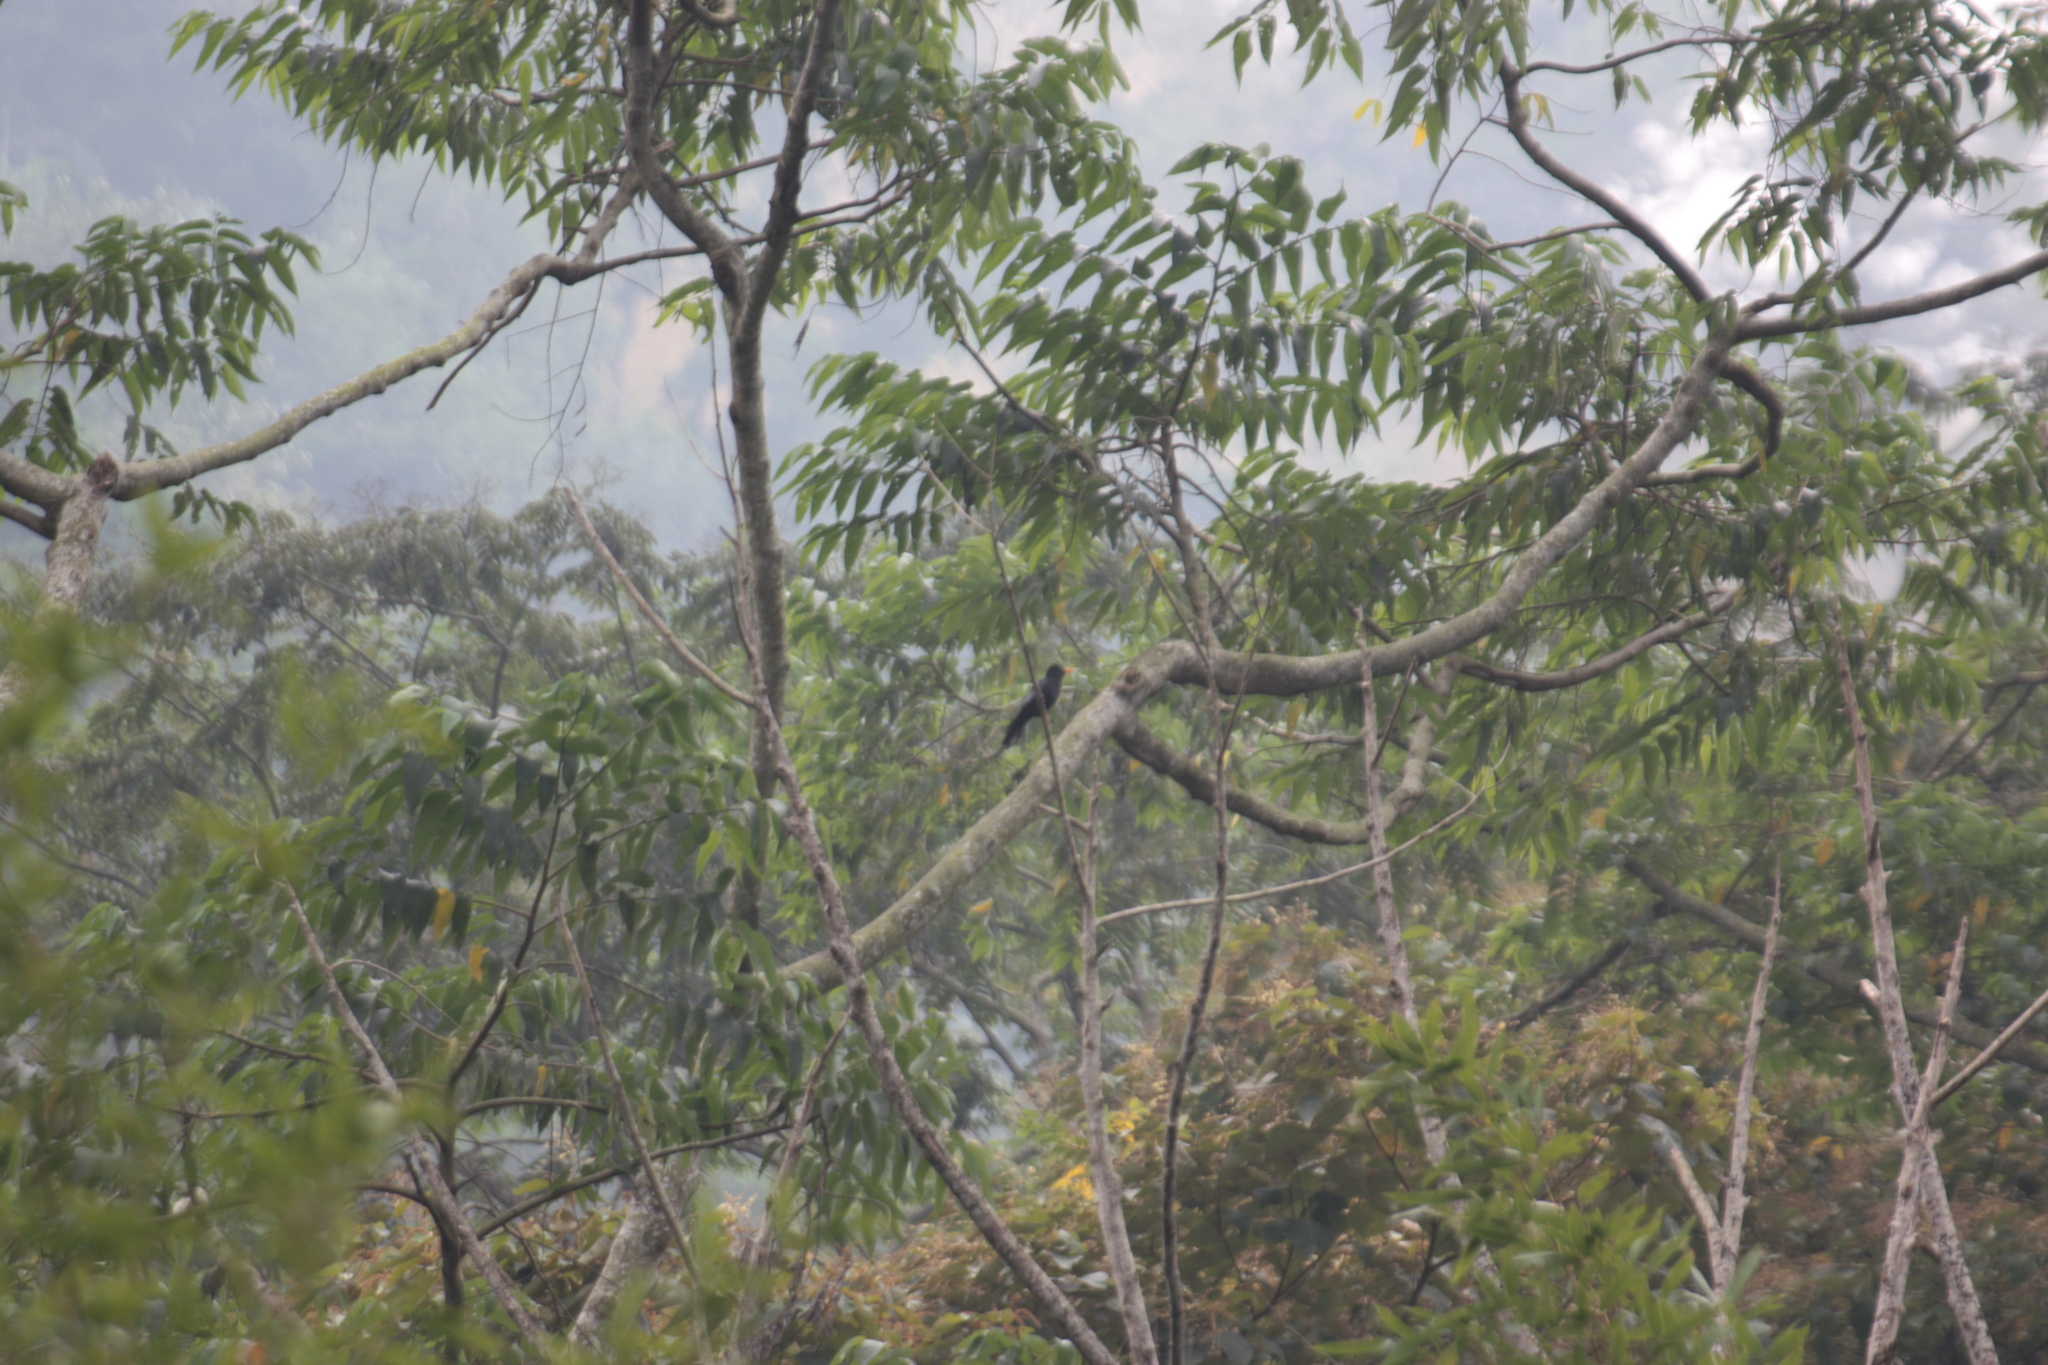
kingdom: Animalia
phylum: Chordata
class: Aves
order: Passeriformes
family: Pycnonotidae
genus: Hypsipetes
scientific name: Hypsipetes leucocephalus
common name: Black bulbul
